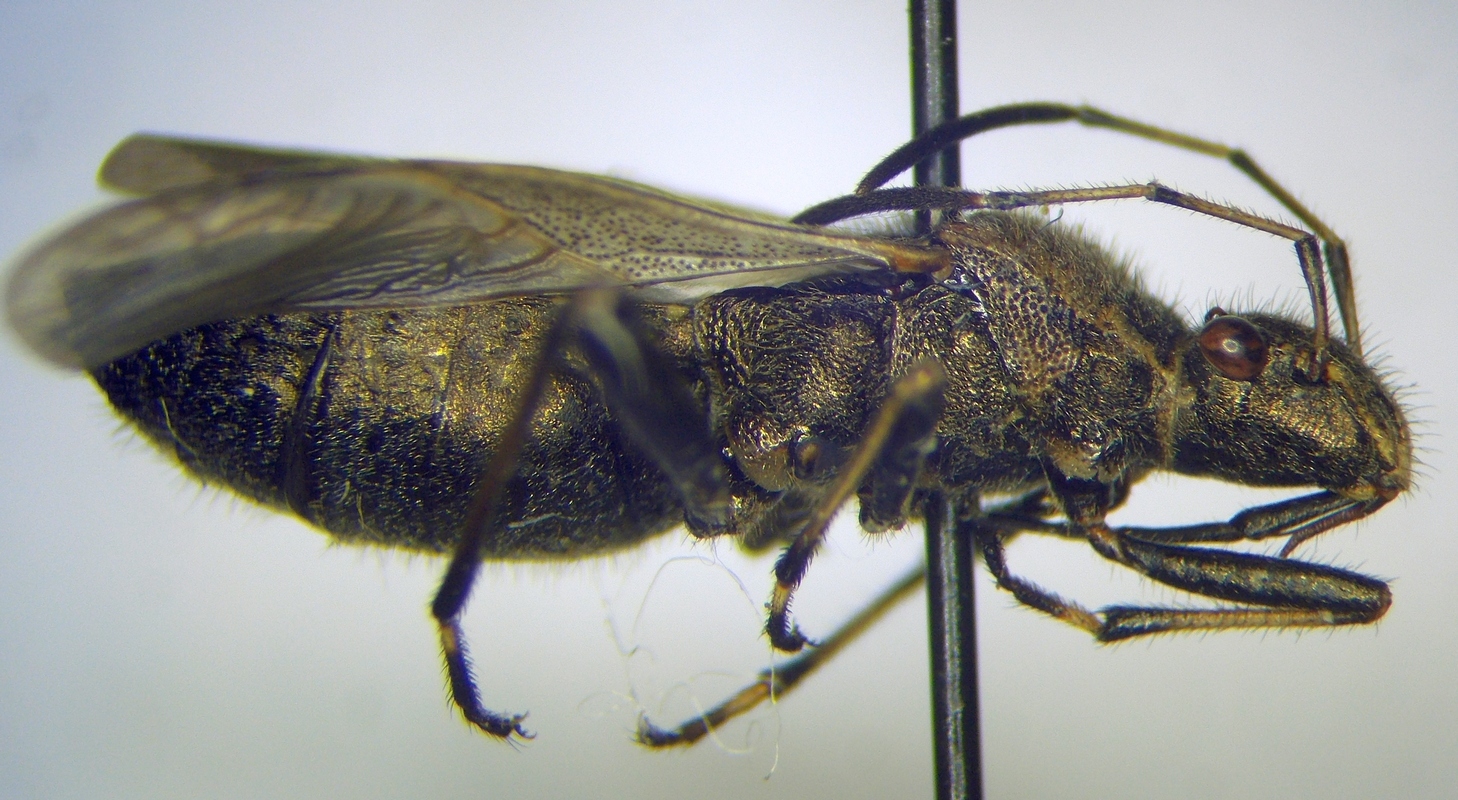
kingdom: Animalia
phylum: Arthropoda
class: Insecta
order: Hemiptera
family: Alydidae
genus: Alydus
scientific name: Alydus calcaratus
